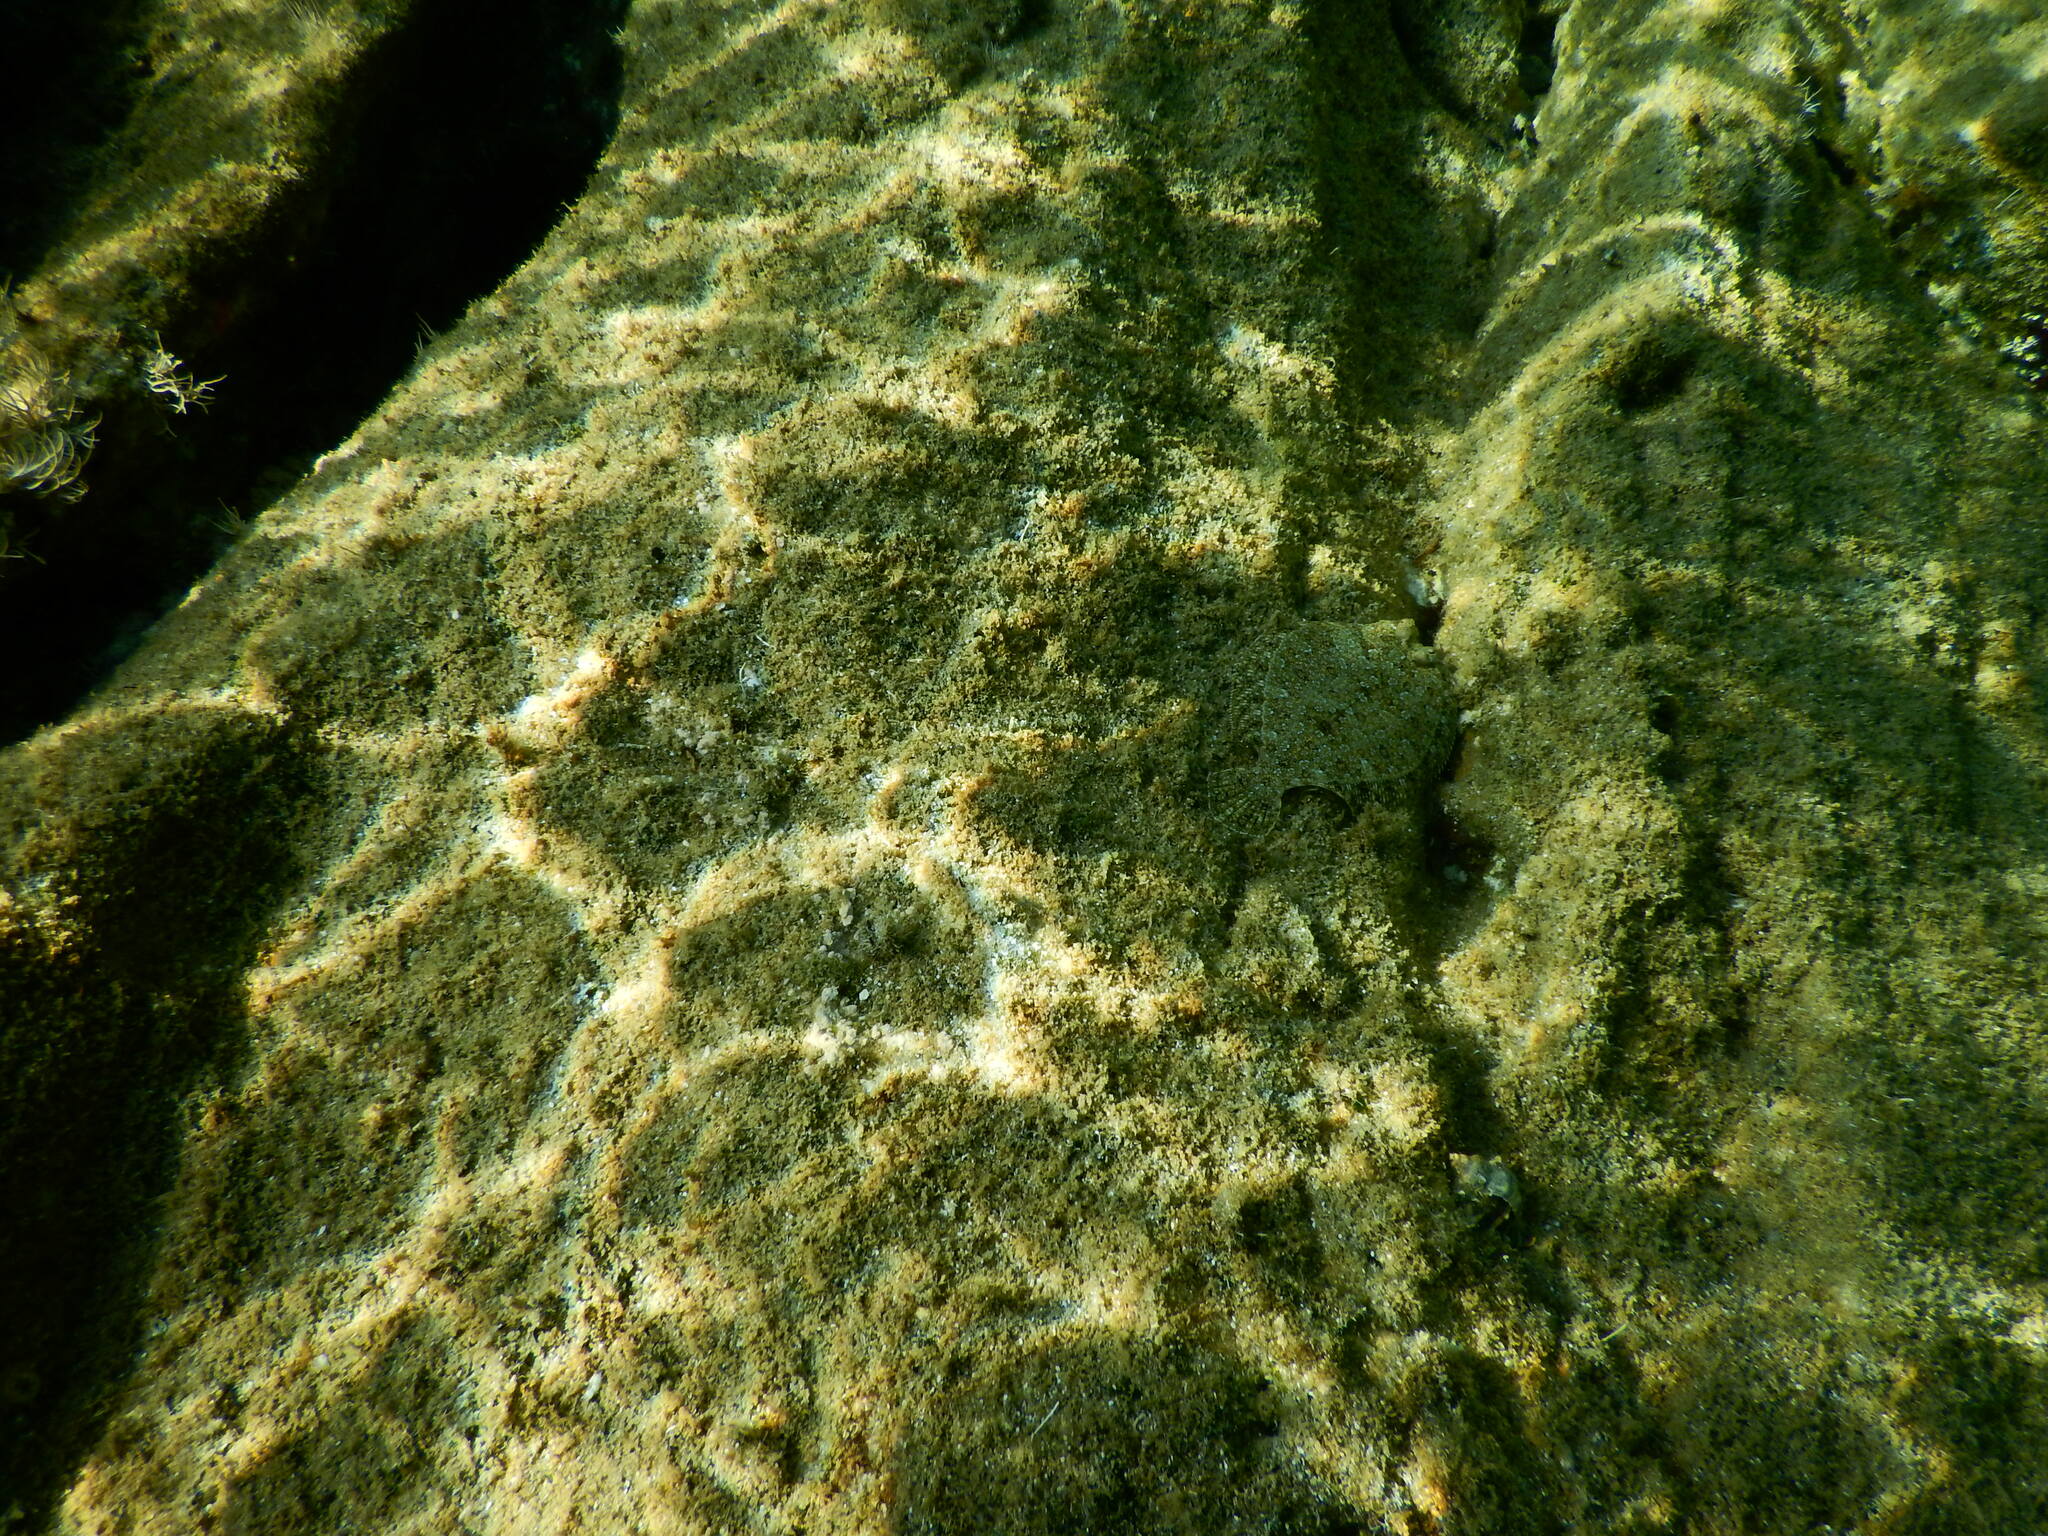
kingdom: Animalia
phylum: Chordata
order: Pleuronectiformes
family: Bothidae
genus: Bothus
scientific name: Bothus podas
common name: Wide-eyed flounder
